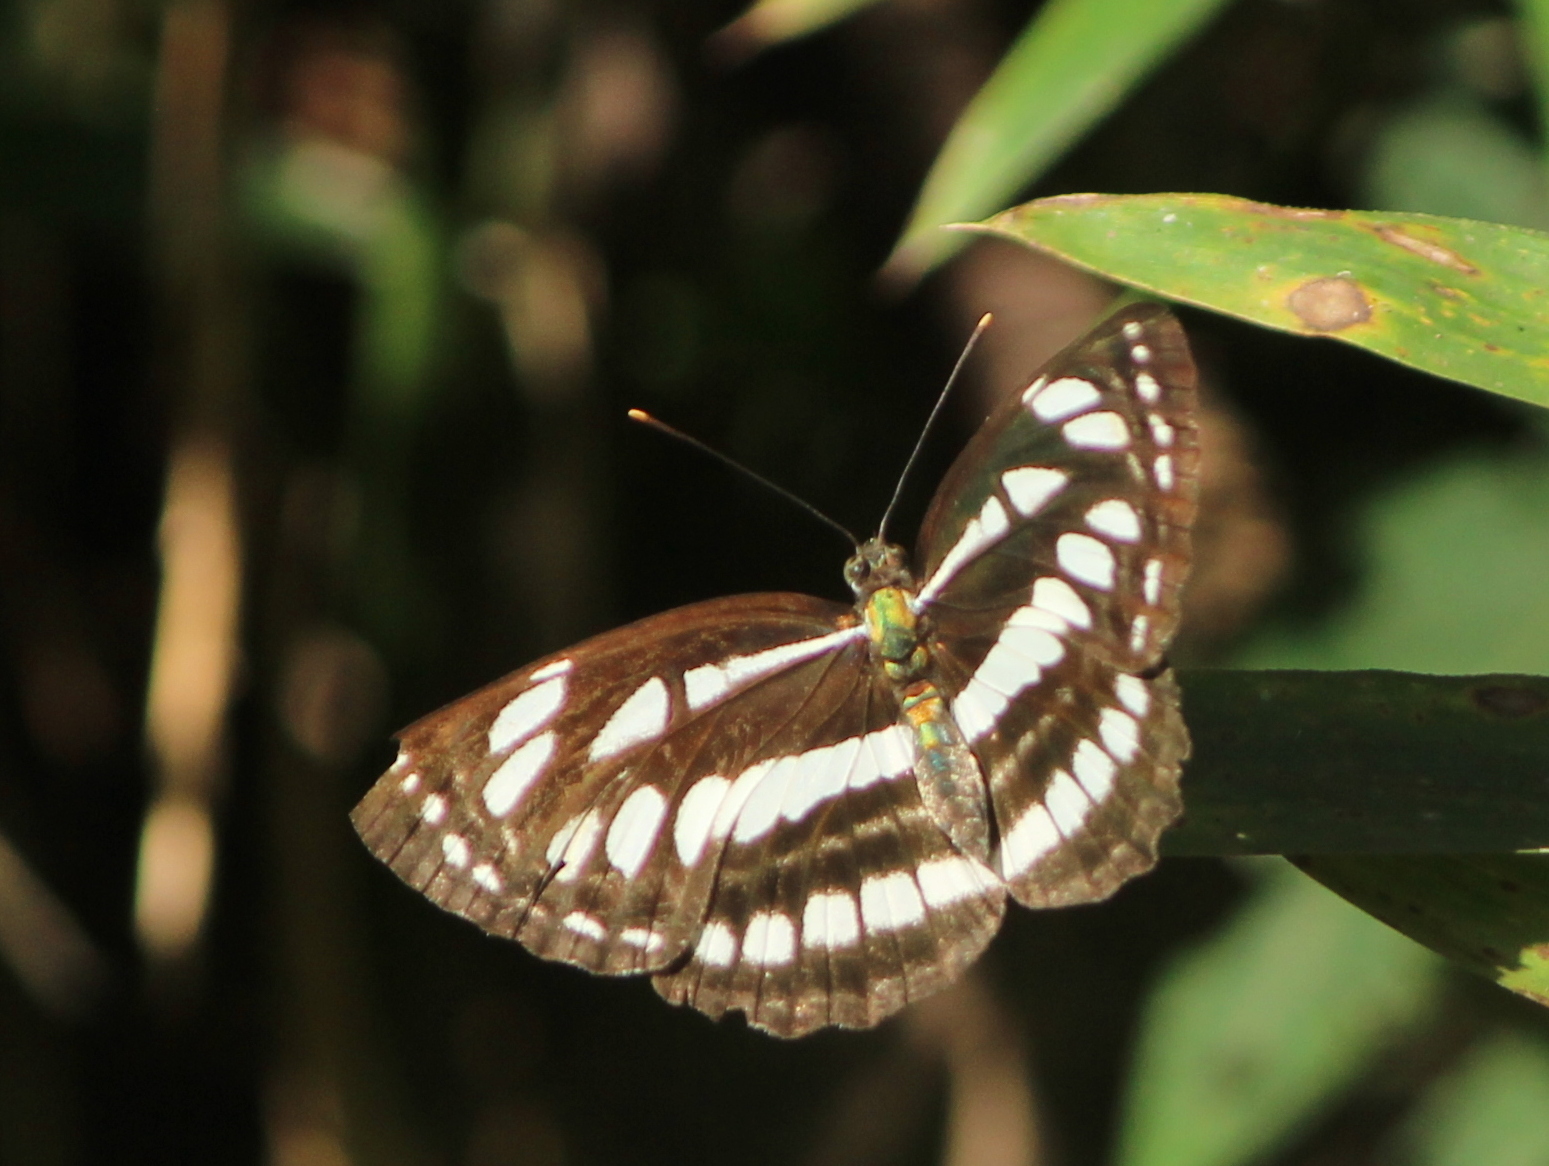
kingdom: Animalia
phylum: Arthropoda
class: Insecta
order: Lepidoptera
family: Nymphalidae
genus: Neptis
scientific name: Neptis hylas
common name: Common sailer
